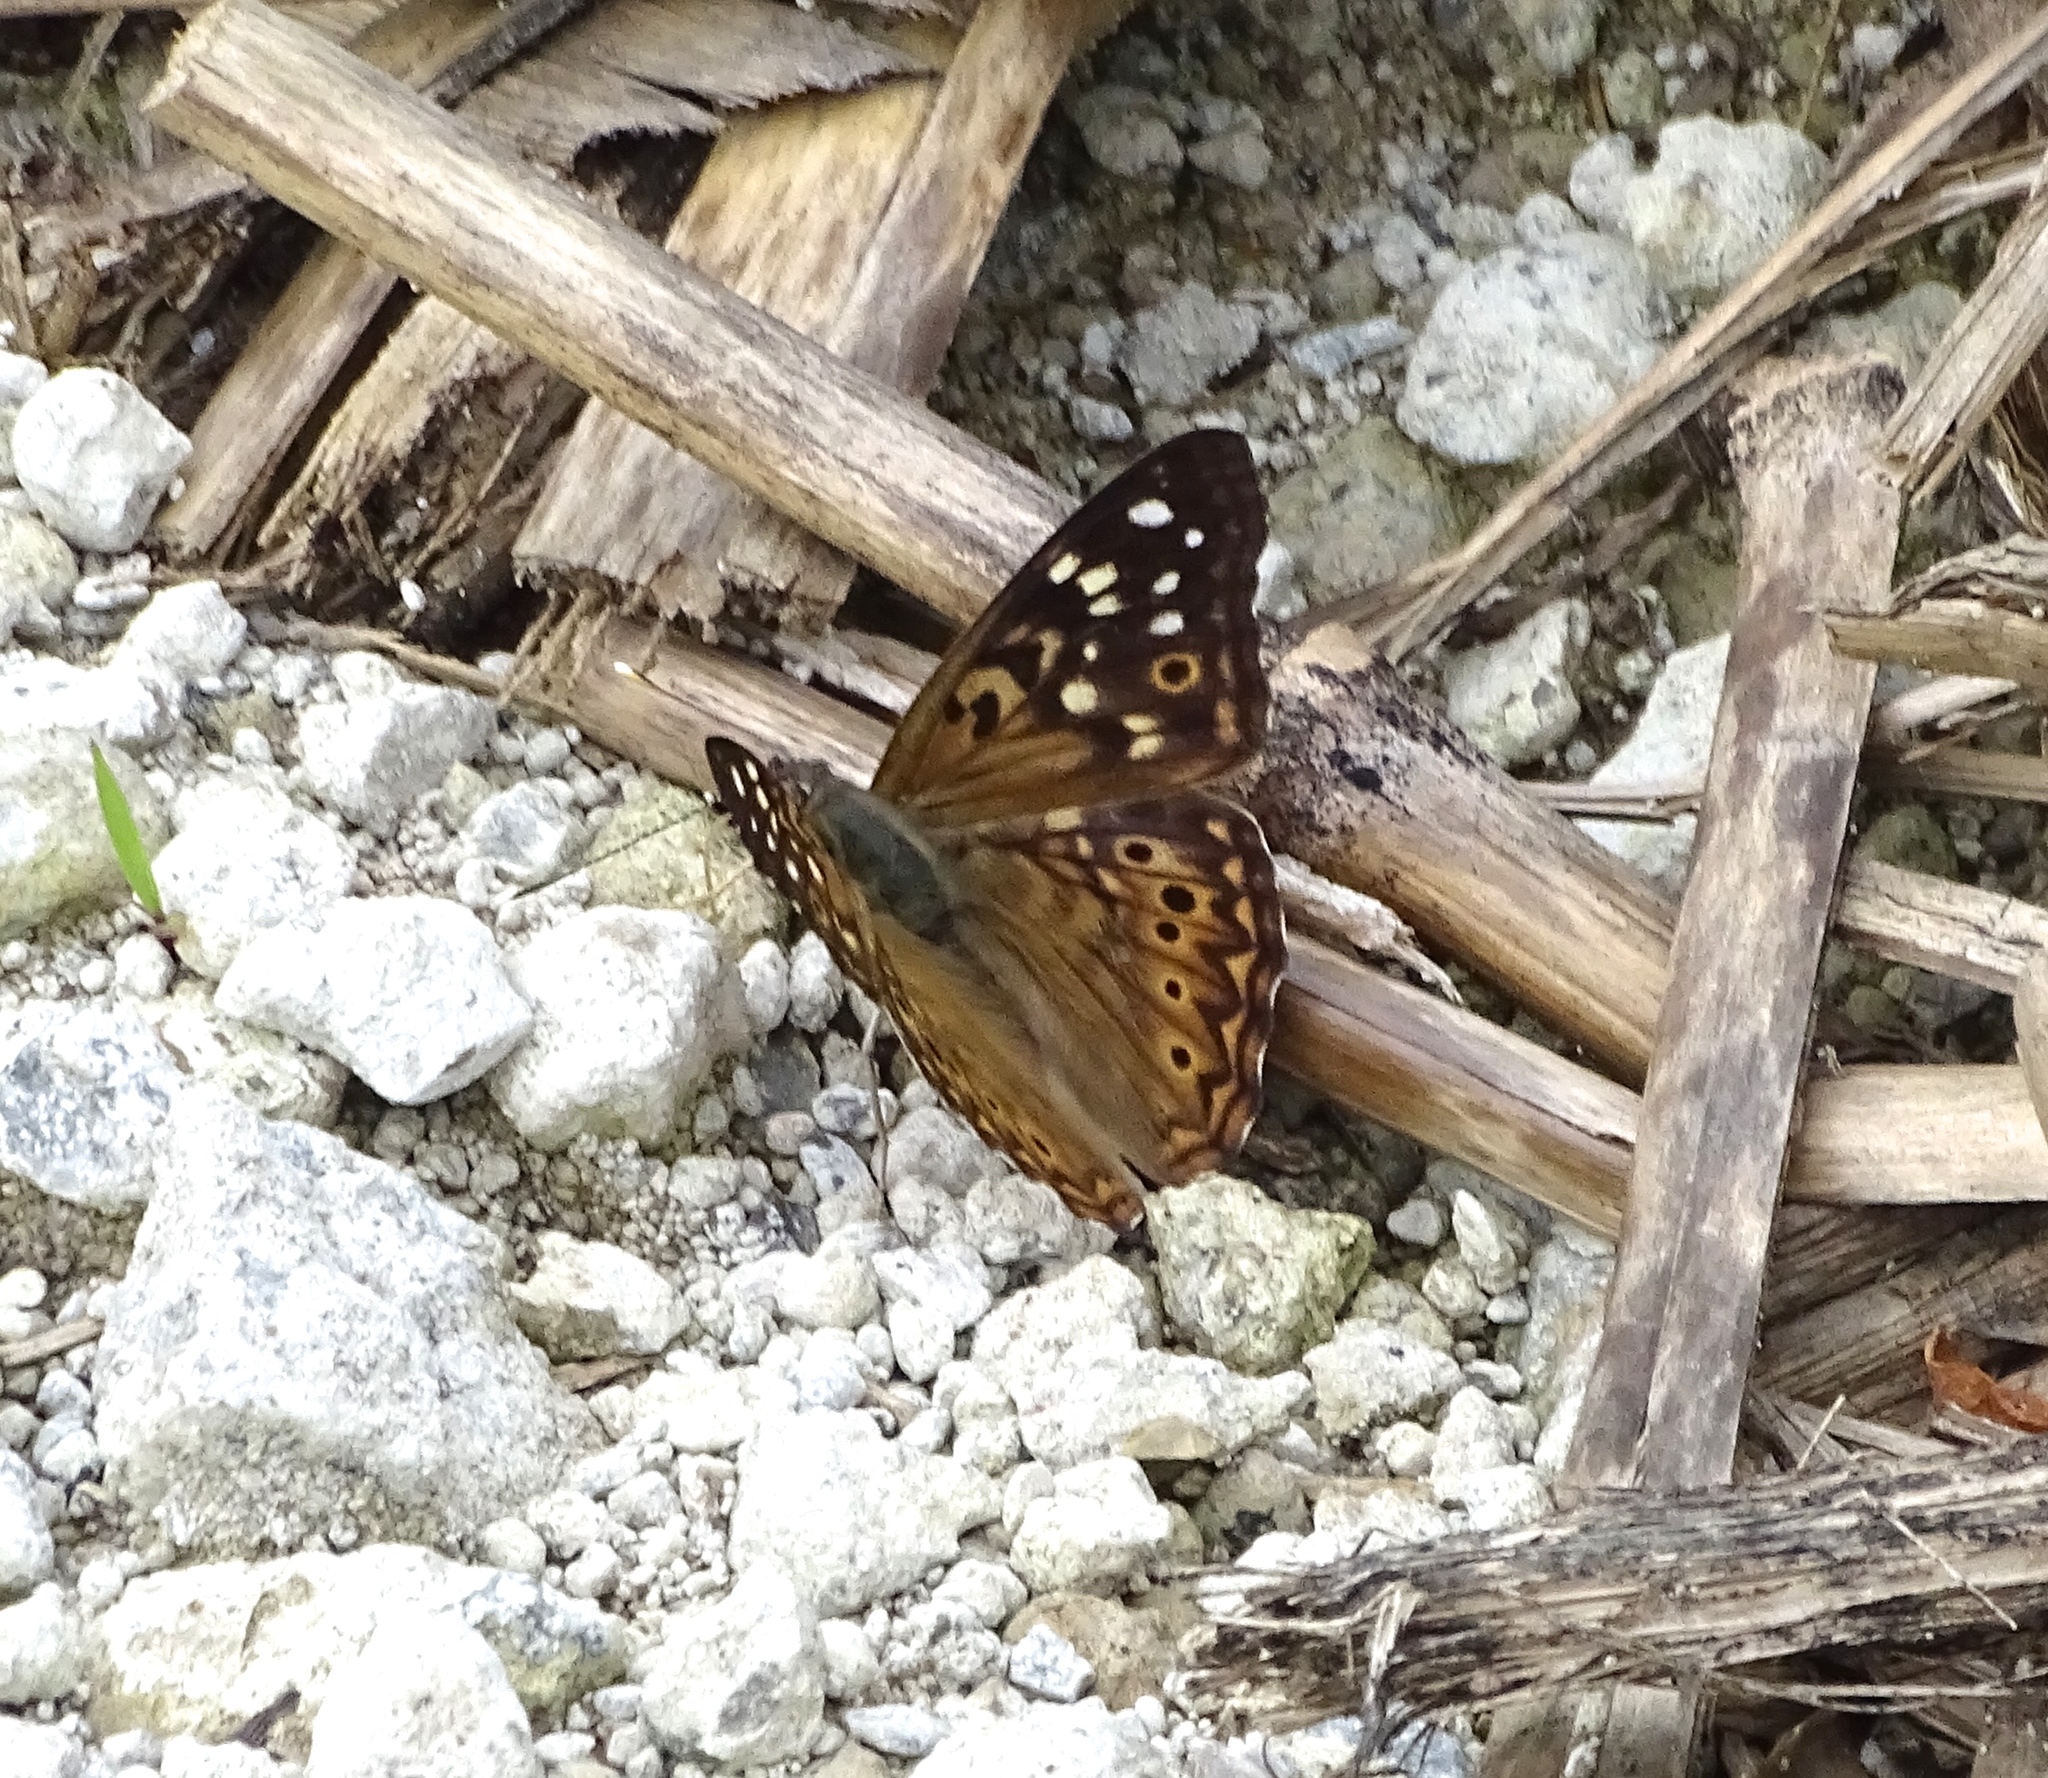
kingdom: Animalia
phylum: Arthropoda
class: Insecta
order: Lepidoptera
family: Nymphalidae
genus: Asterocampa
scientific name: Asterocampa celtis
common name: Hackberry emperor
